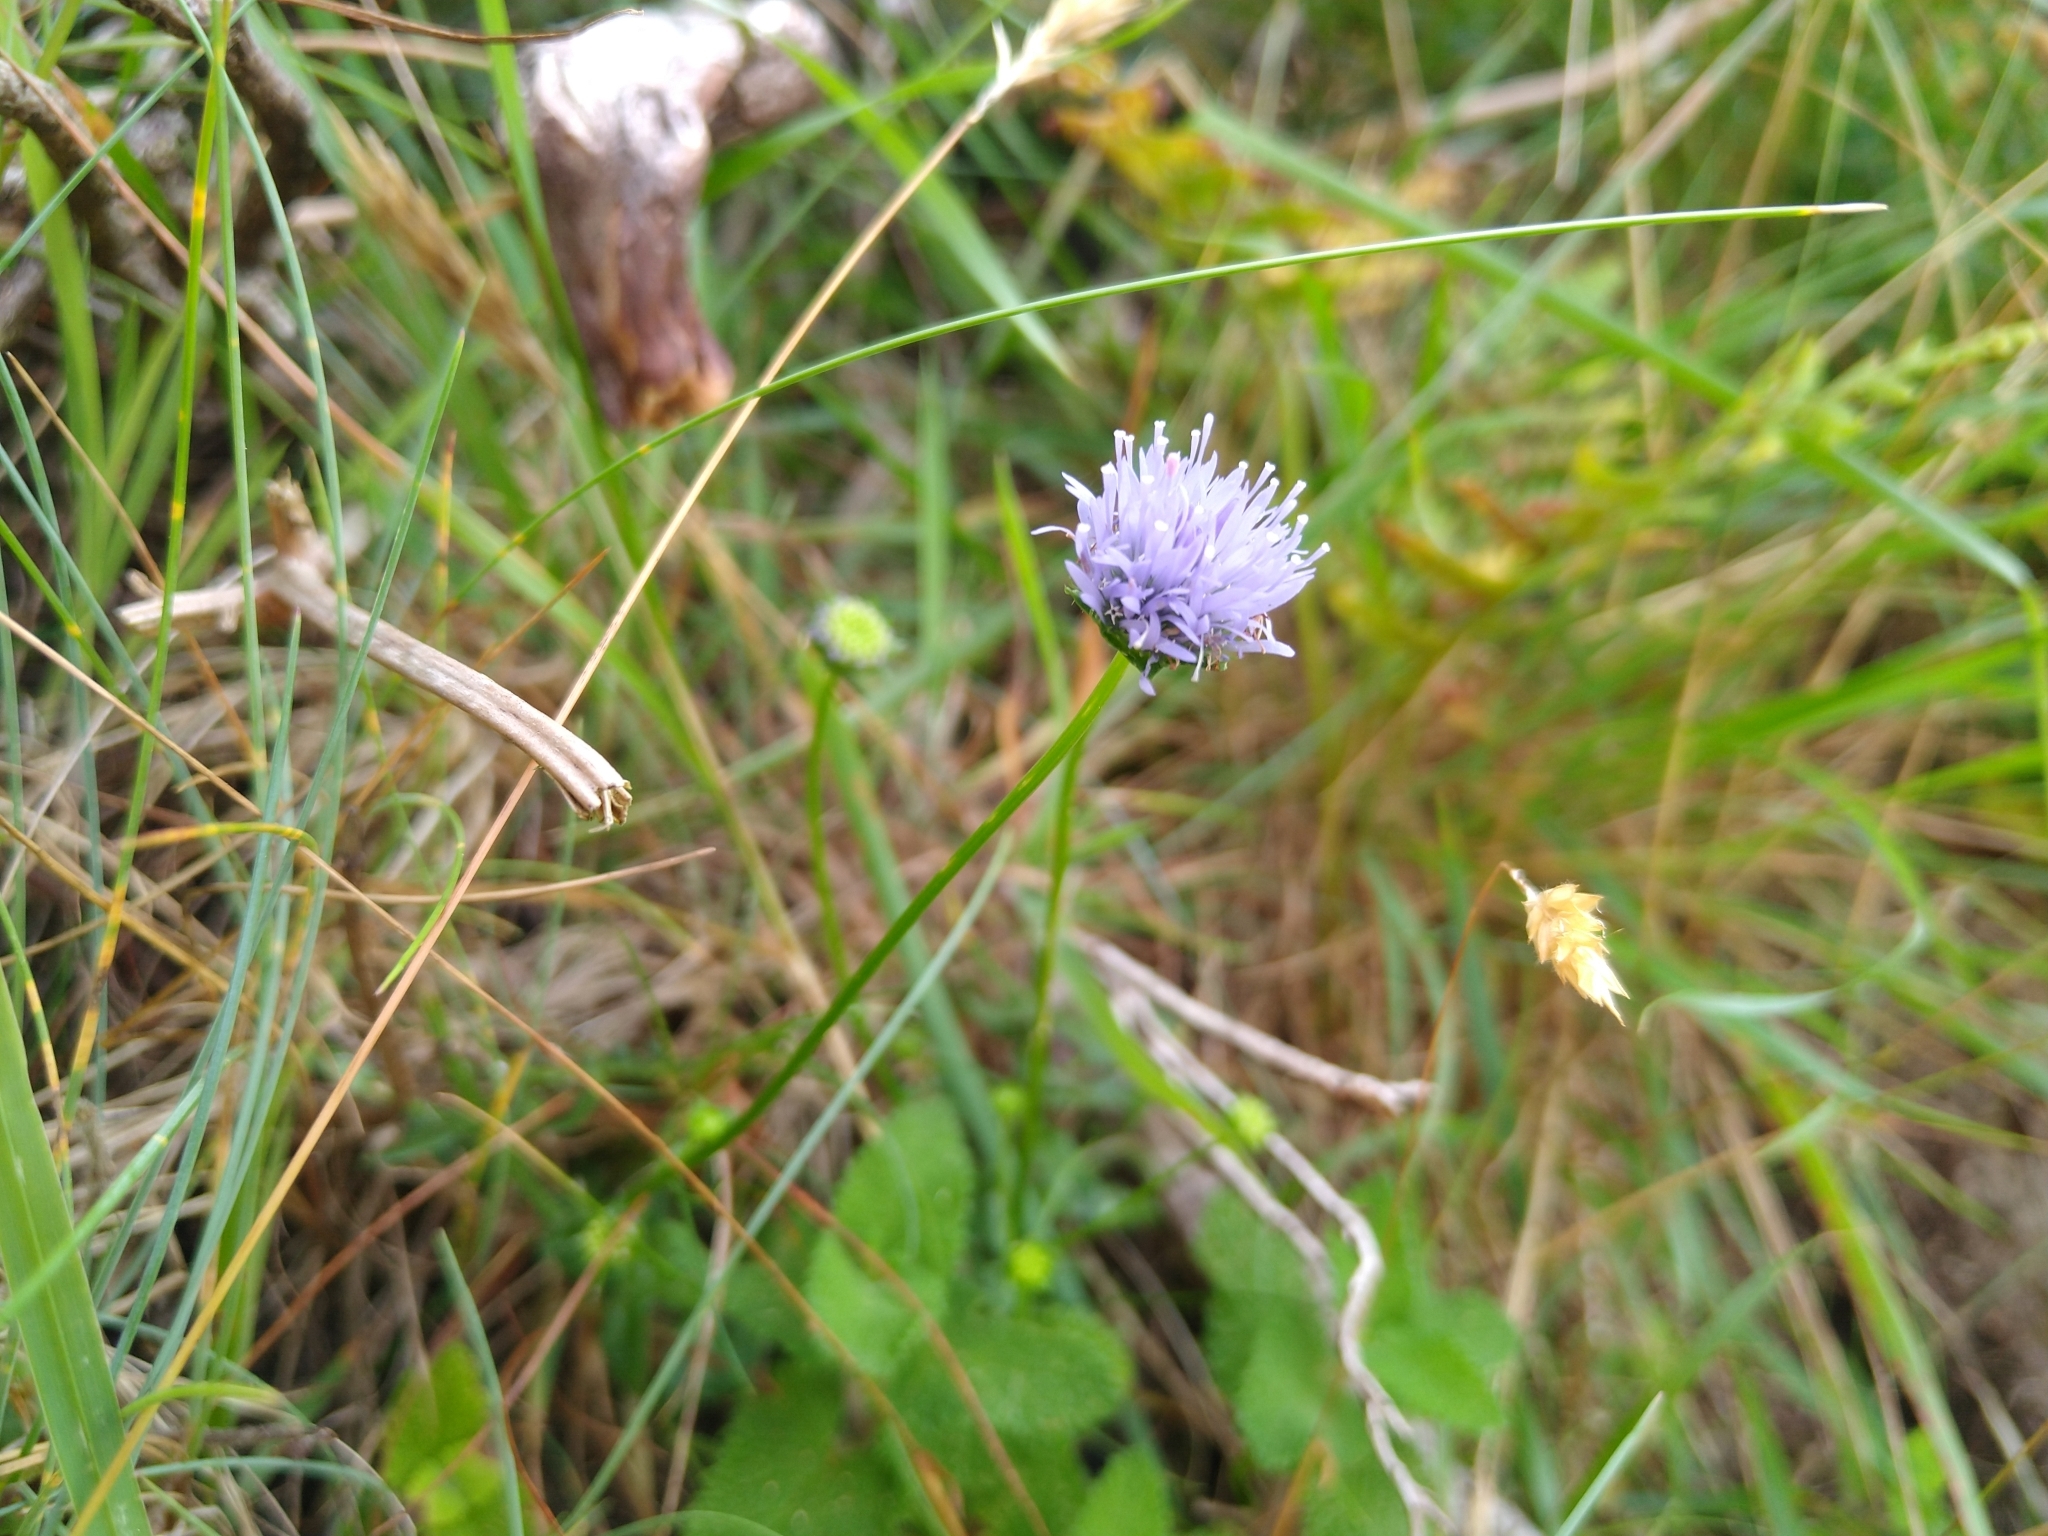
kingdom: Plantae
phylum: Tracheophyta
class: Magnoliopsida
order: Asterales
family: Campanulaceae
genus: Jasione
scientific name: Jasione montana
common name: Sheep's-bit
